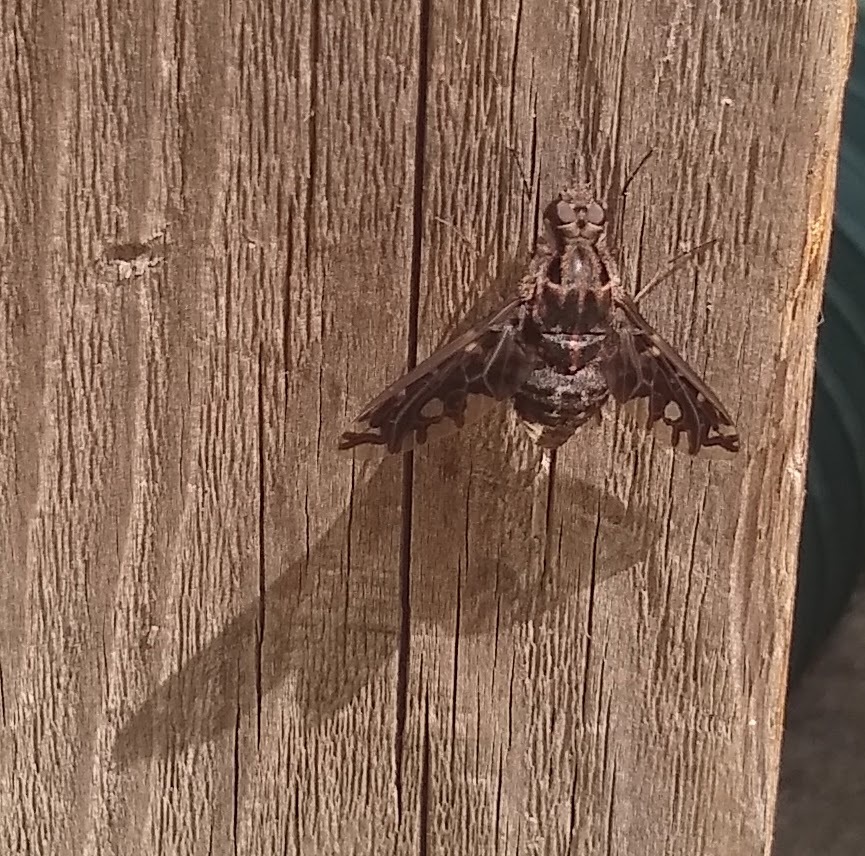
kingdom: Animalia
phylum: Arthropoda
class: Insecta
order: Diptera
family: Bombyliidae
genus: Xenox
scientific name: Xenox tigrinus
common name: Tiger bee fly
